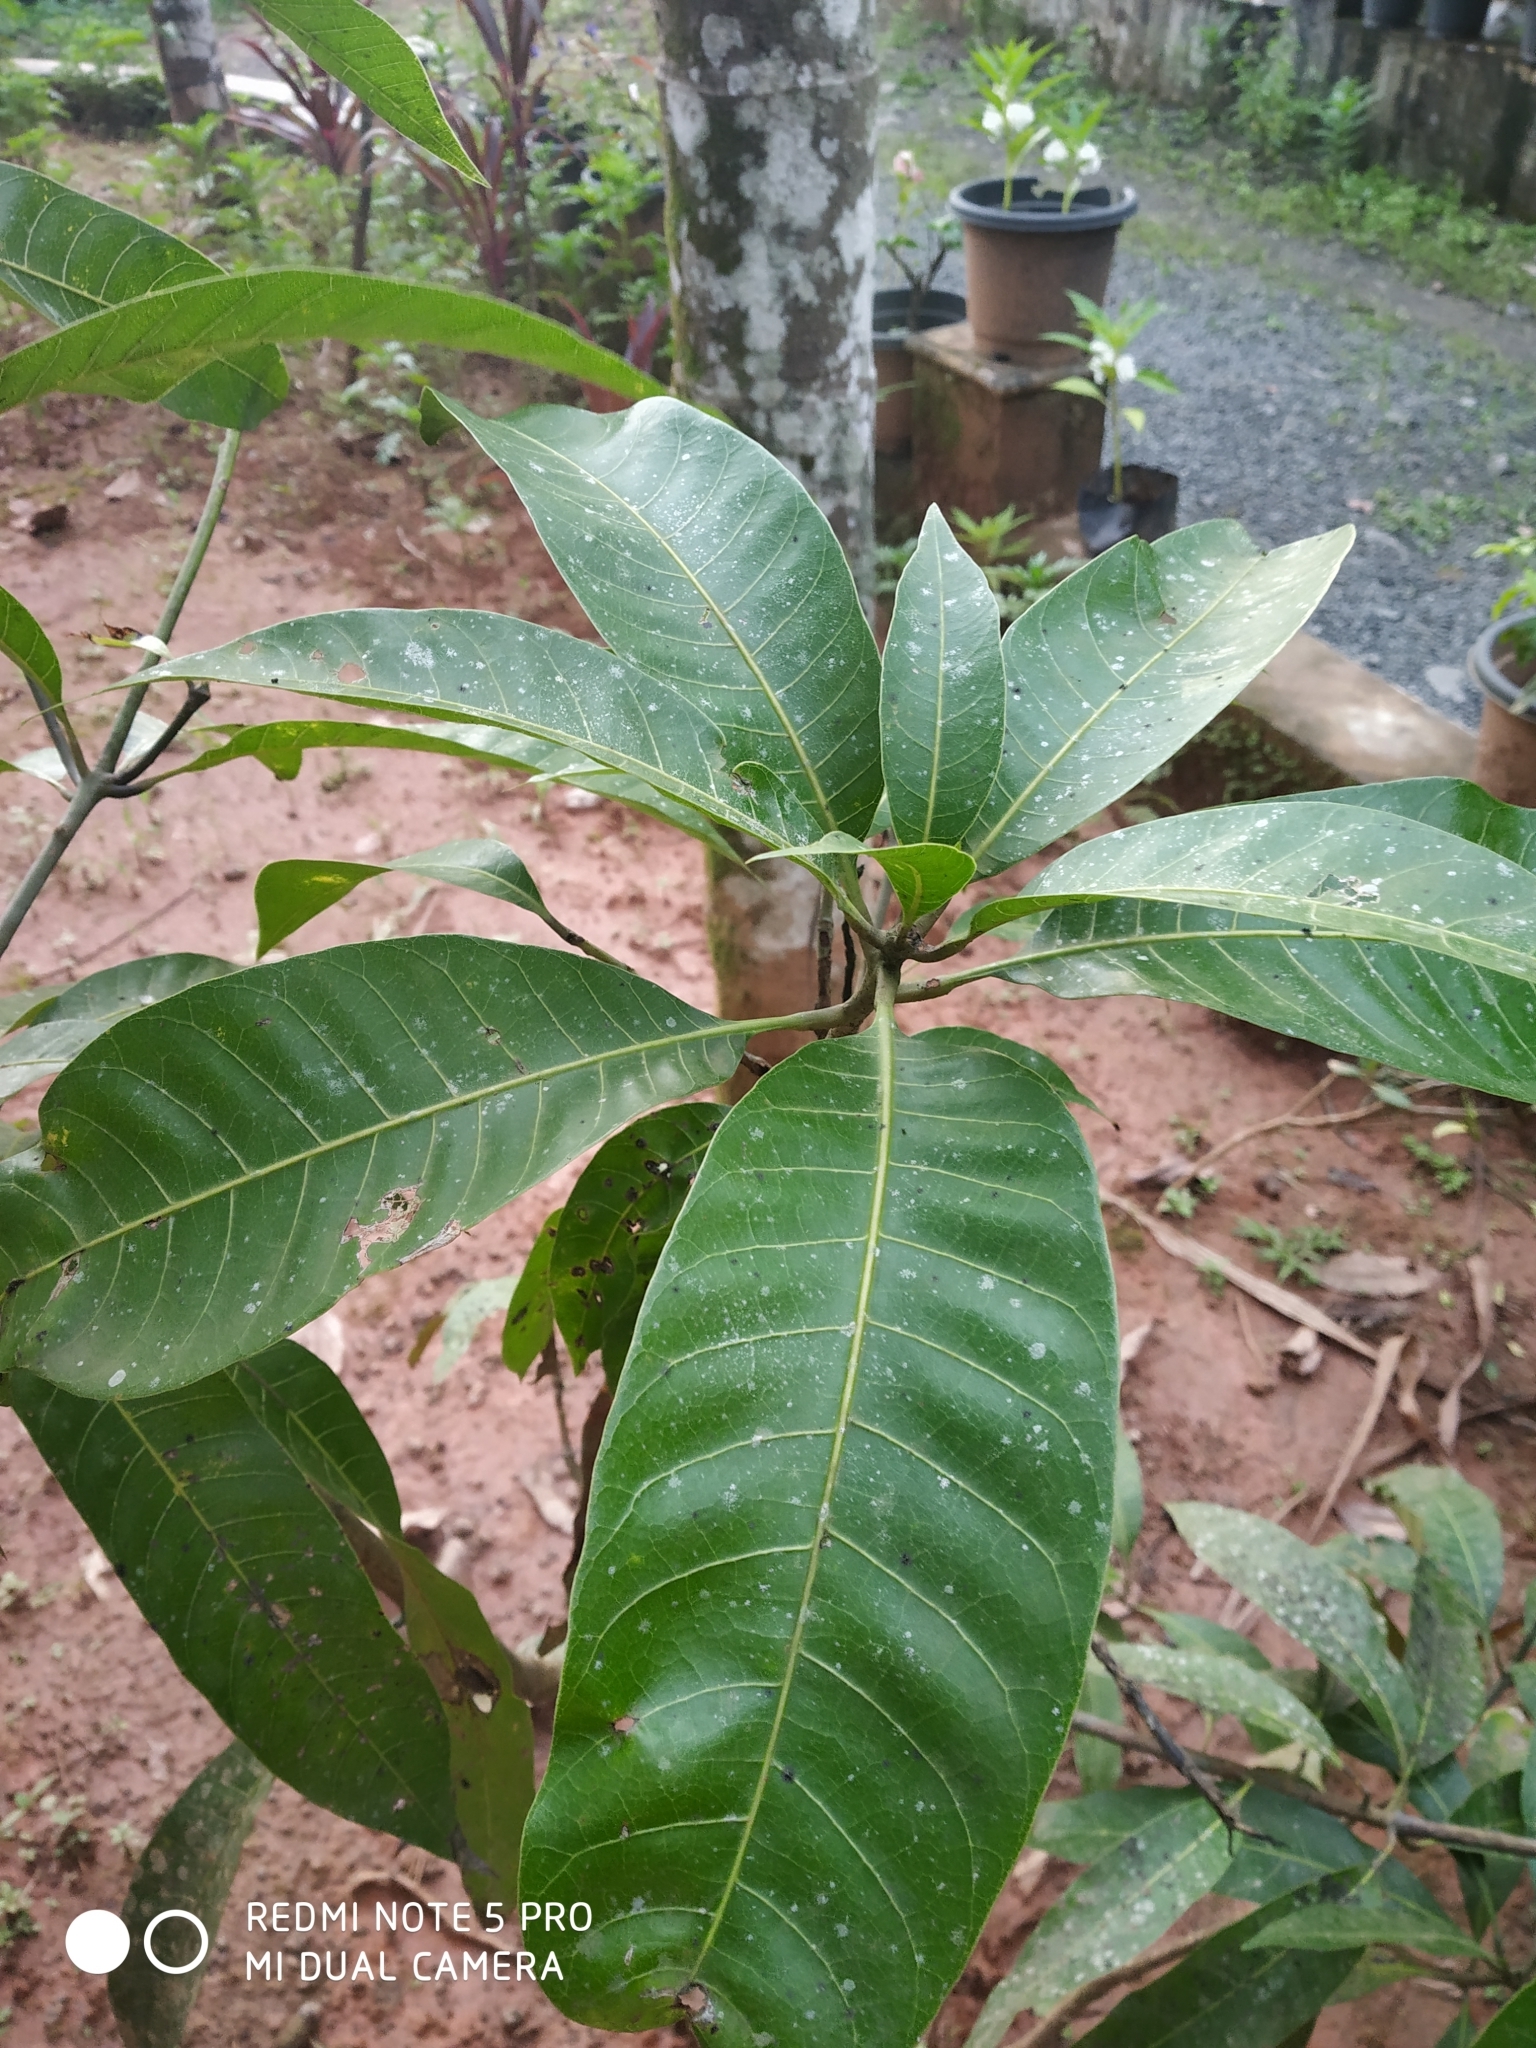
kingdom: Plantae
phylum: Tracheophyta
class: Magnoliopsida
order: Sapindales
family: Anacardiaceae
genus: Mangifera
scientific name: Mangifera indica
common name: Mango
